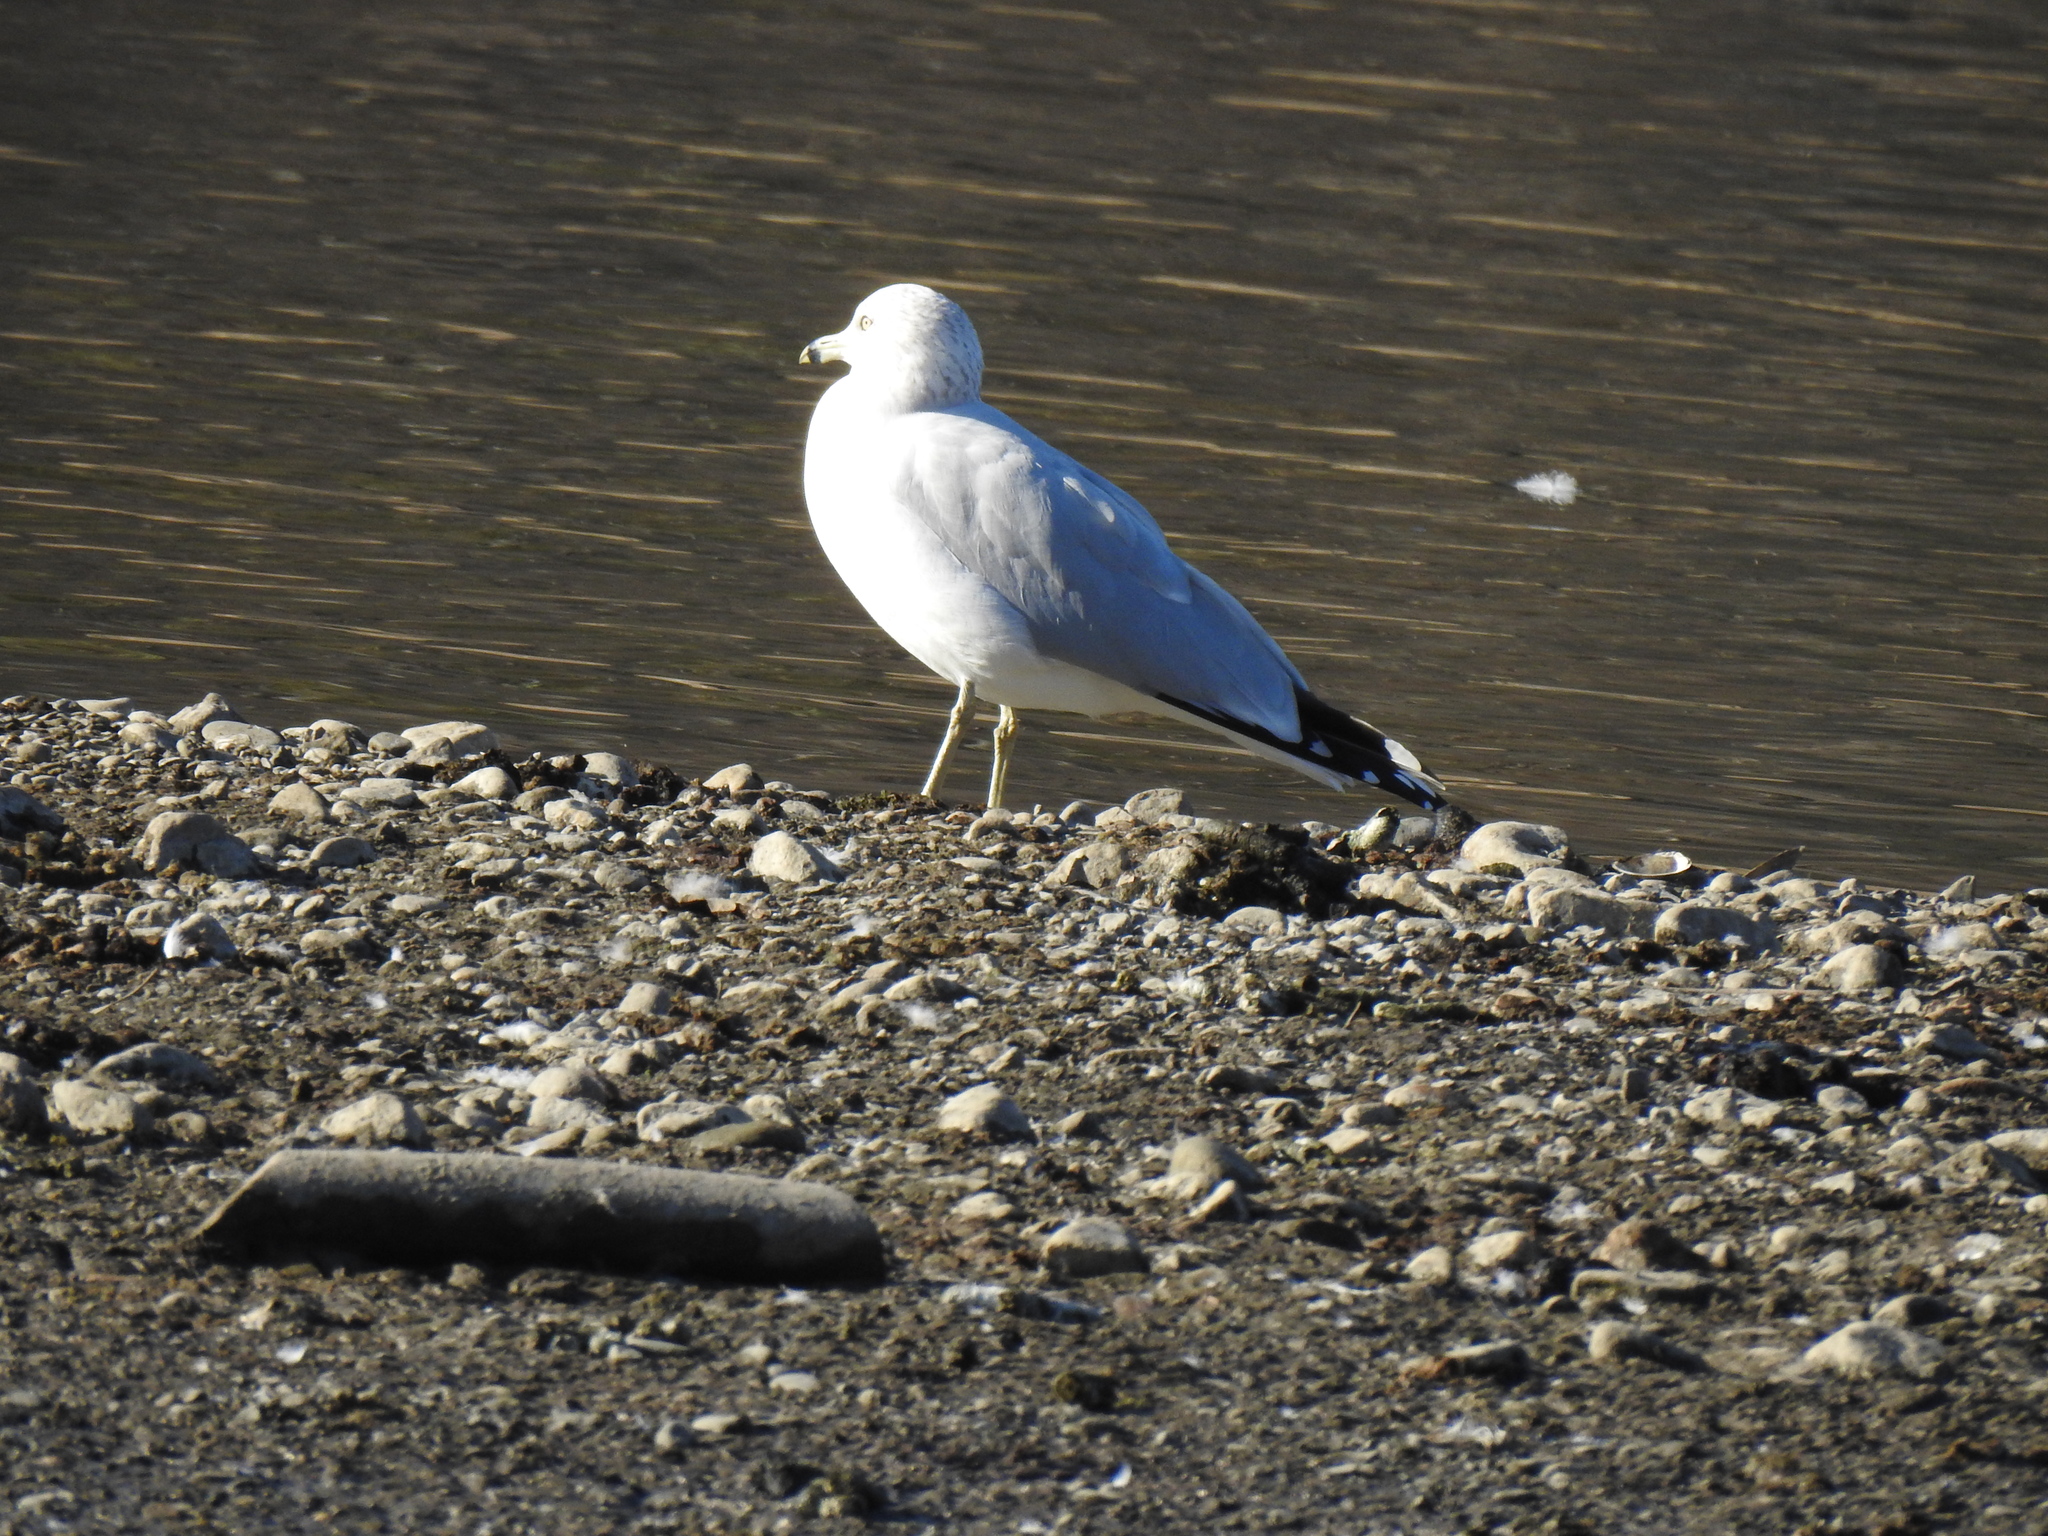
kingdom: Animalia
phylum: Chordata
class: Aves
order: Charadriiformes
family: Laridae
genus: Larus
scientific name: Larus delawarensis
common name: Ring-billed gull
